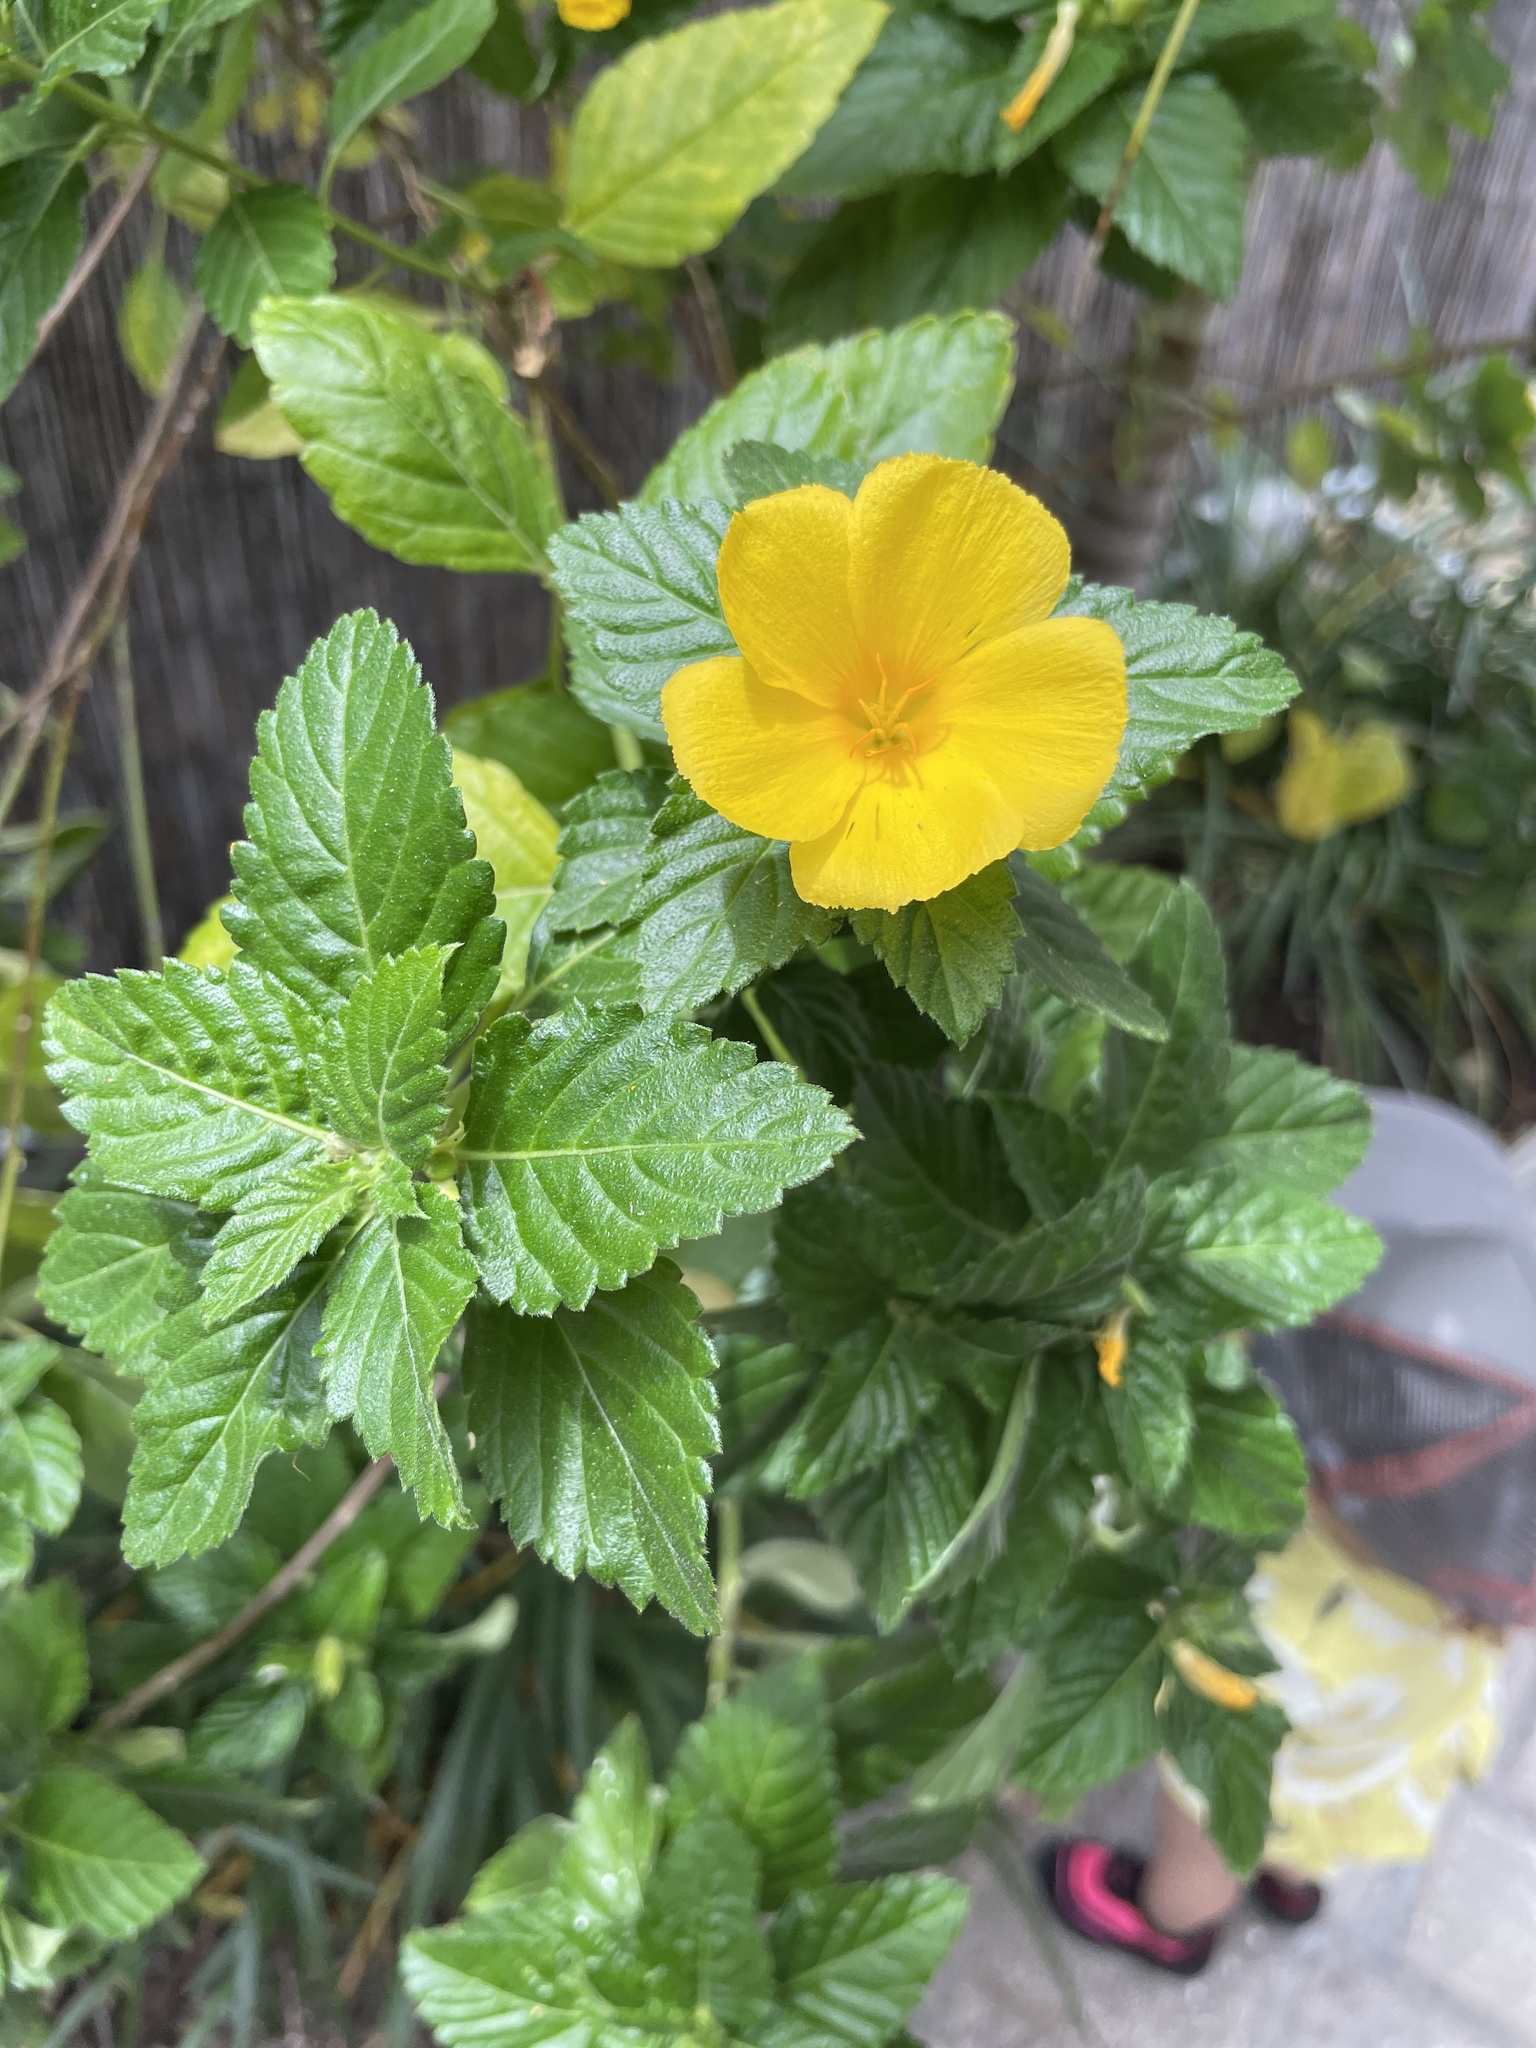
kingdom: Plantae
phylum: Tracheophyta
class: Magnoliopsida
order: Malpighiales
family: Turneraceae
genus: Turnera
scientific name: Turnera ulmifolia
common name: Ramgoat dashalong
